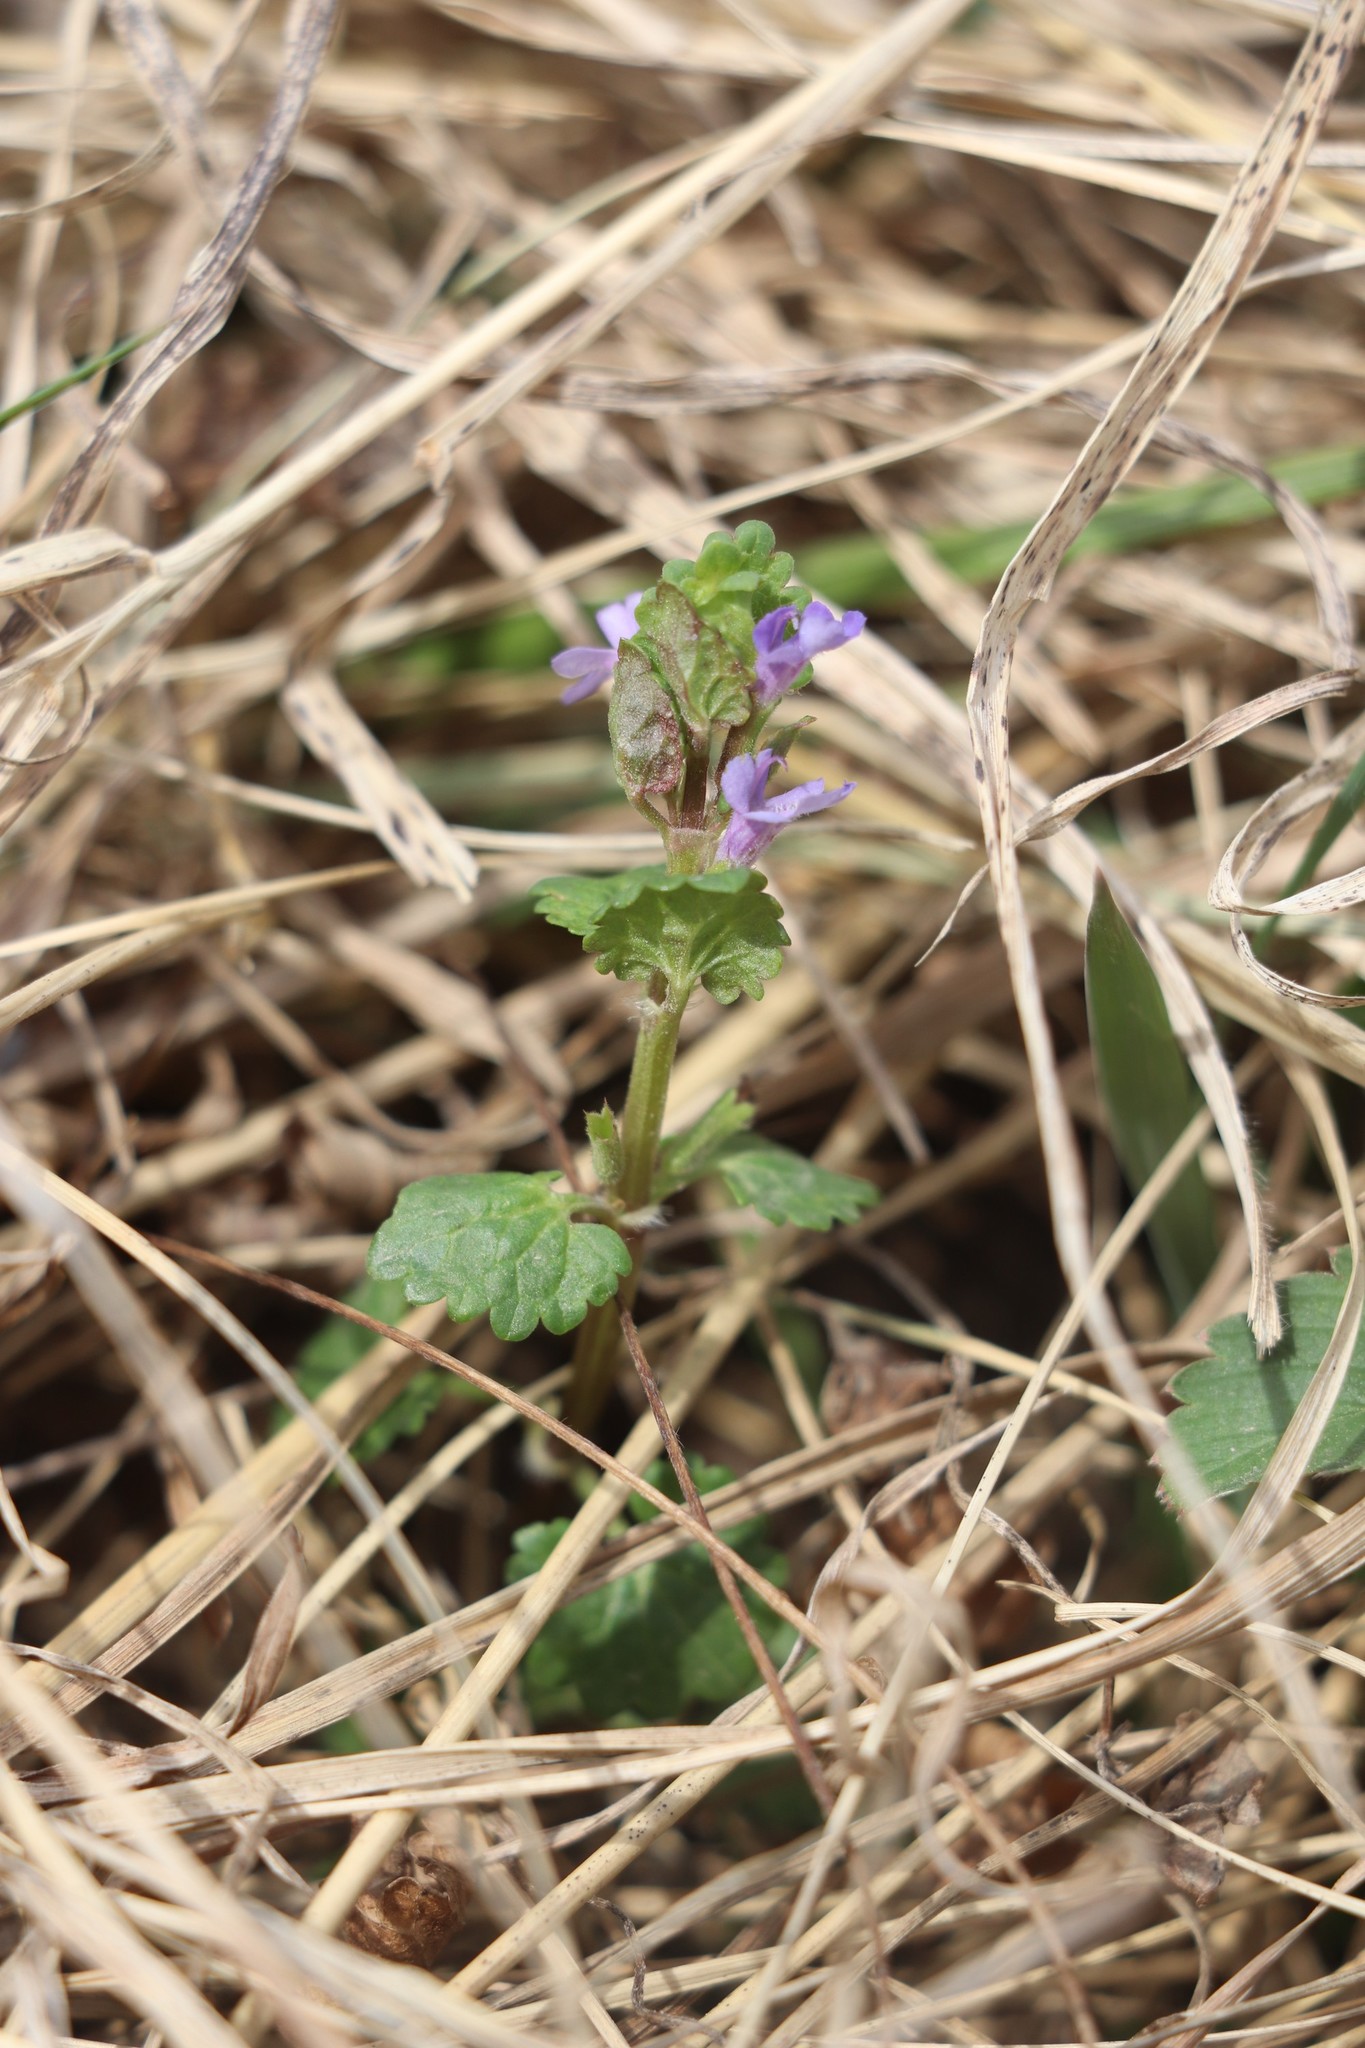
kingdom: Plantae
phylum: Tracheophyta
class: Magnoliopsida
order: Lamiales
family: Lamiaceae
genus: Glechoma
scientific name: Glechoma hederacea
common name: Ground ivy
